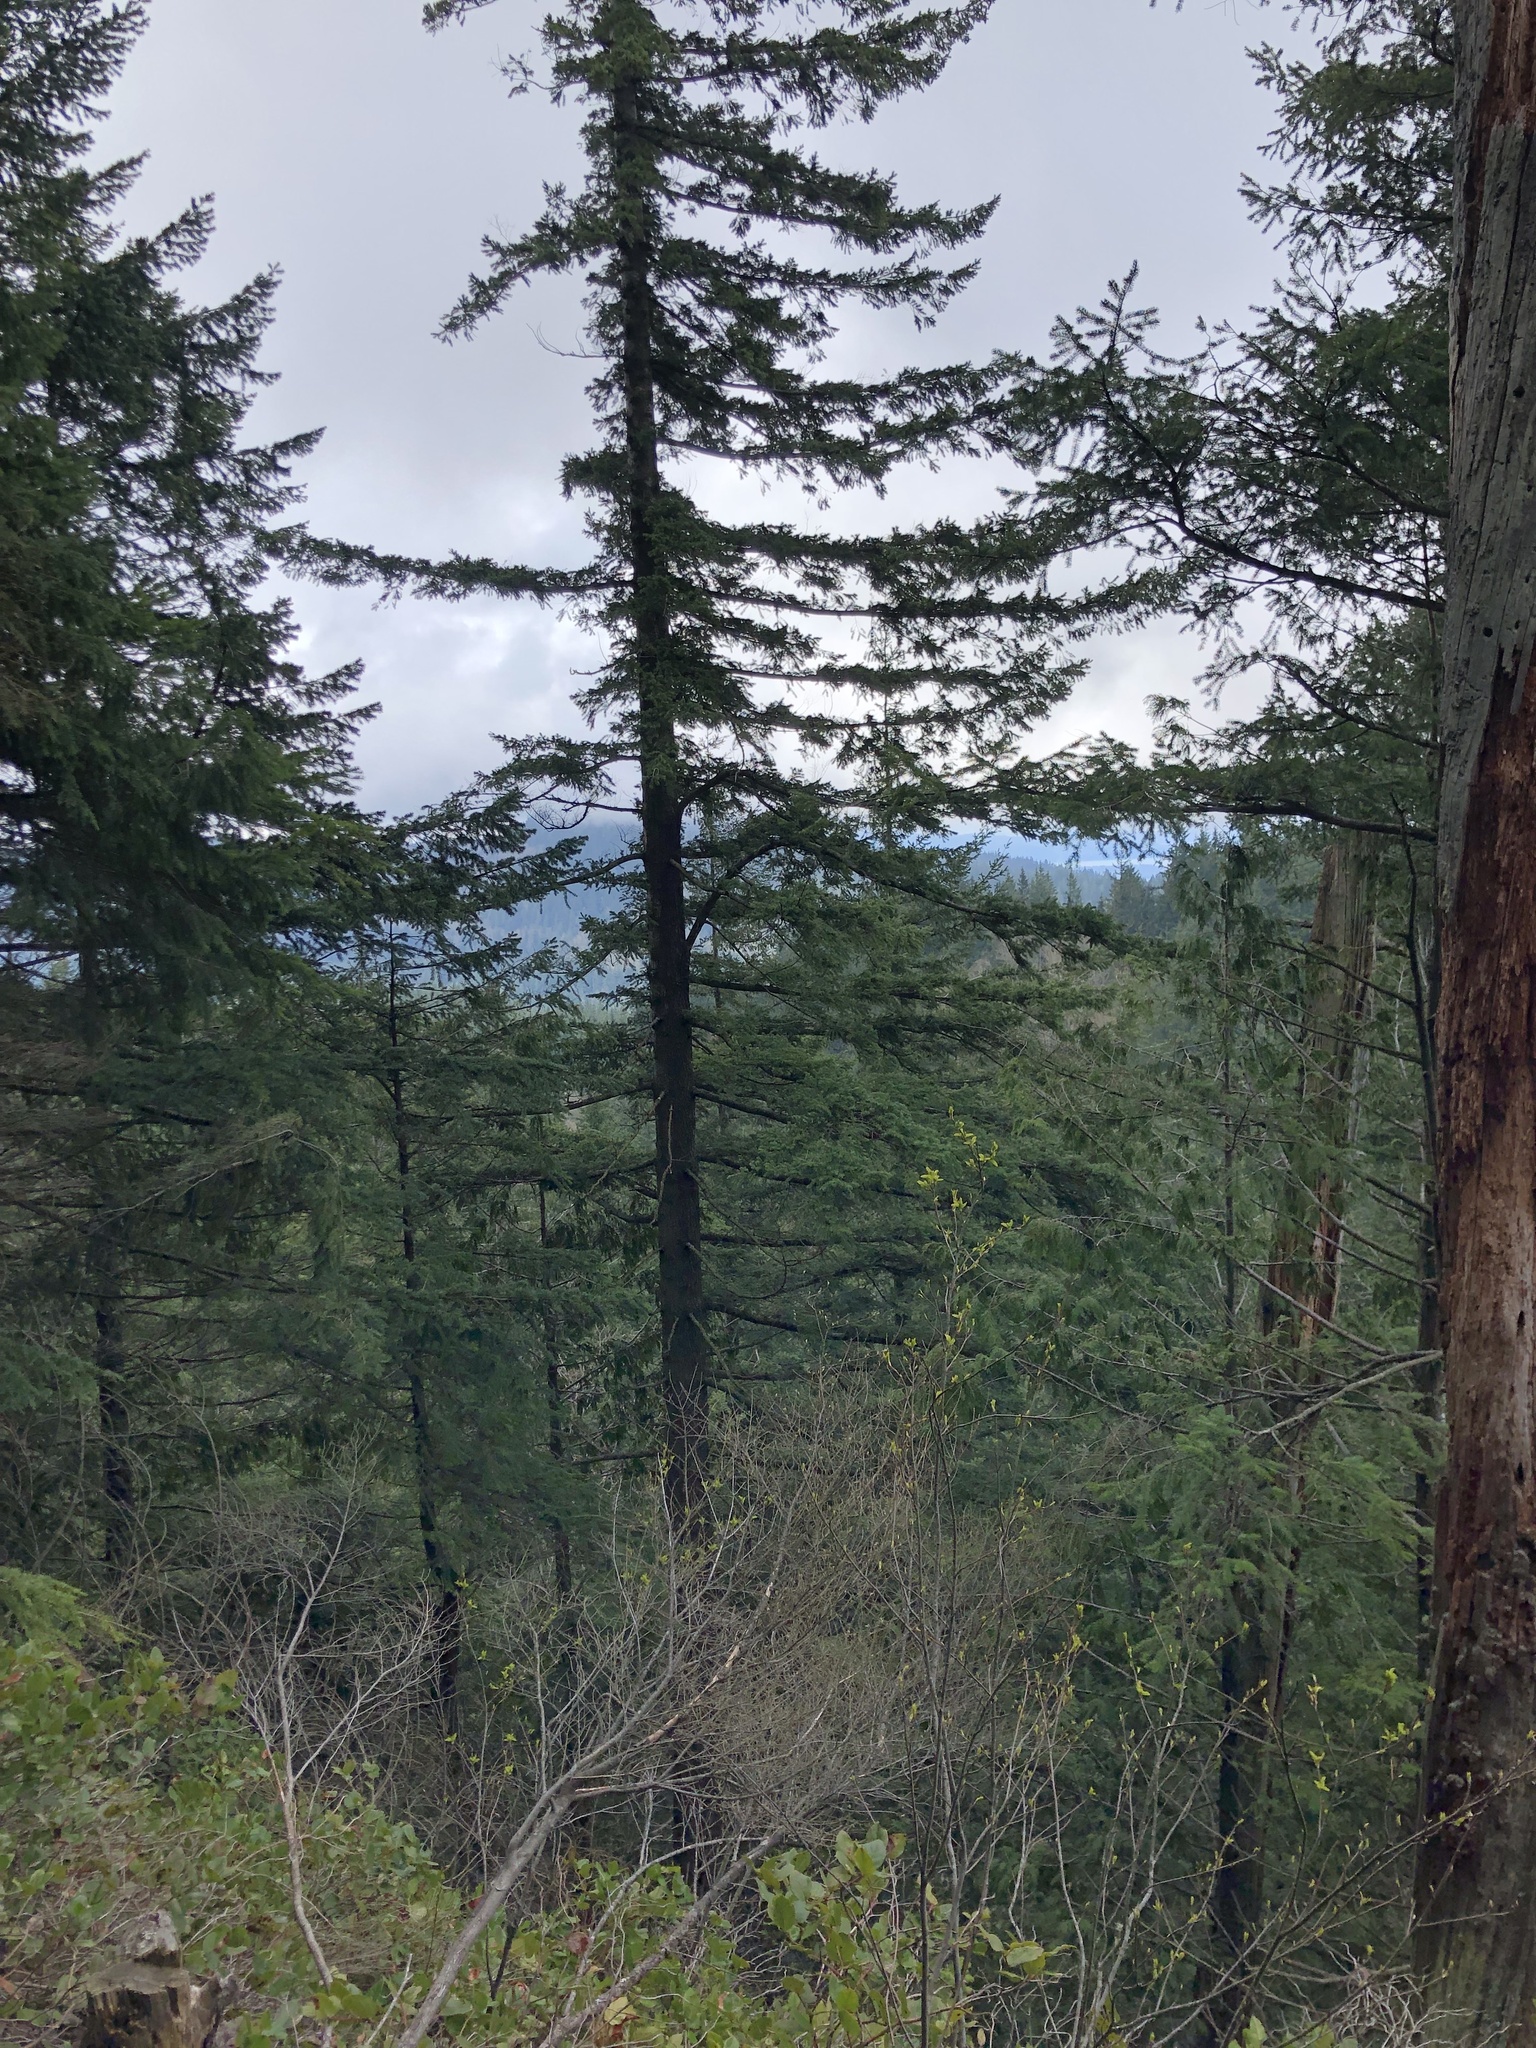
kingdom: Plantae
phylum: Tracheophyta
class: Pinopsida
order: Pinales
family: Pinaceae
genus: Pseudotsuga
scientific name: Pseudotsuga menziesii
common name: Douglas fir
